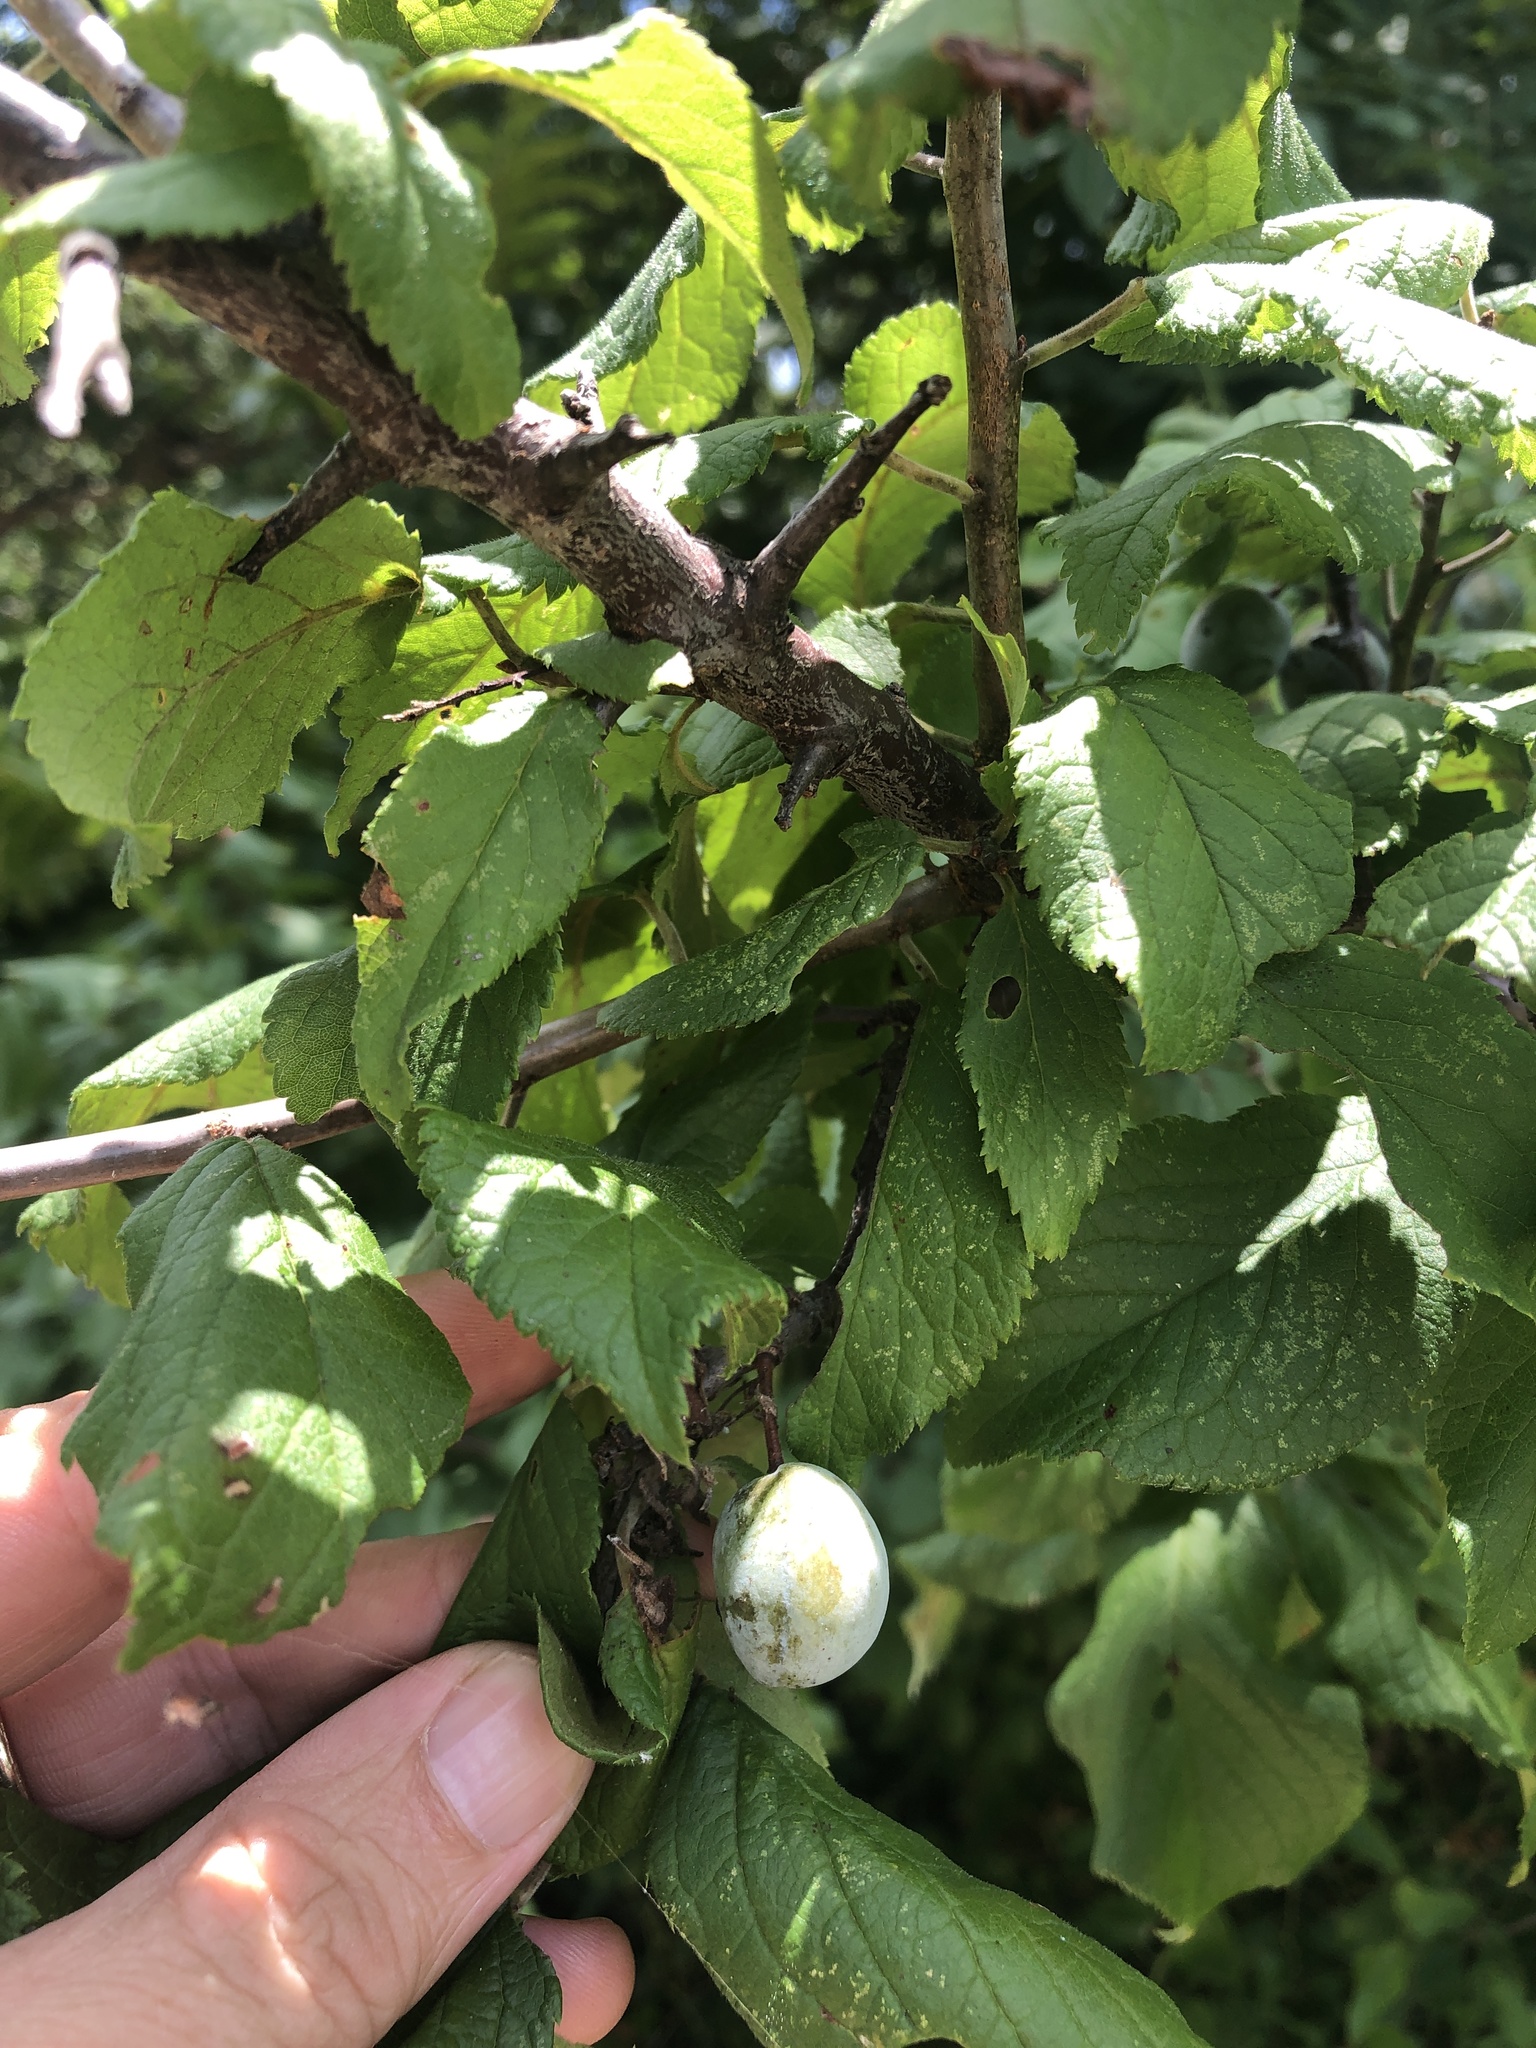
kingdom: Plantae
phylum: Tracheophyta
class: Magnoliopsida
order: Rosales
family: Rosaceae
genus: Prunus
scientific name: Prunus mexicana
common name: Mexican plum
